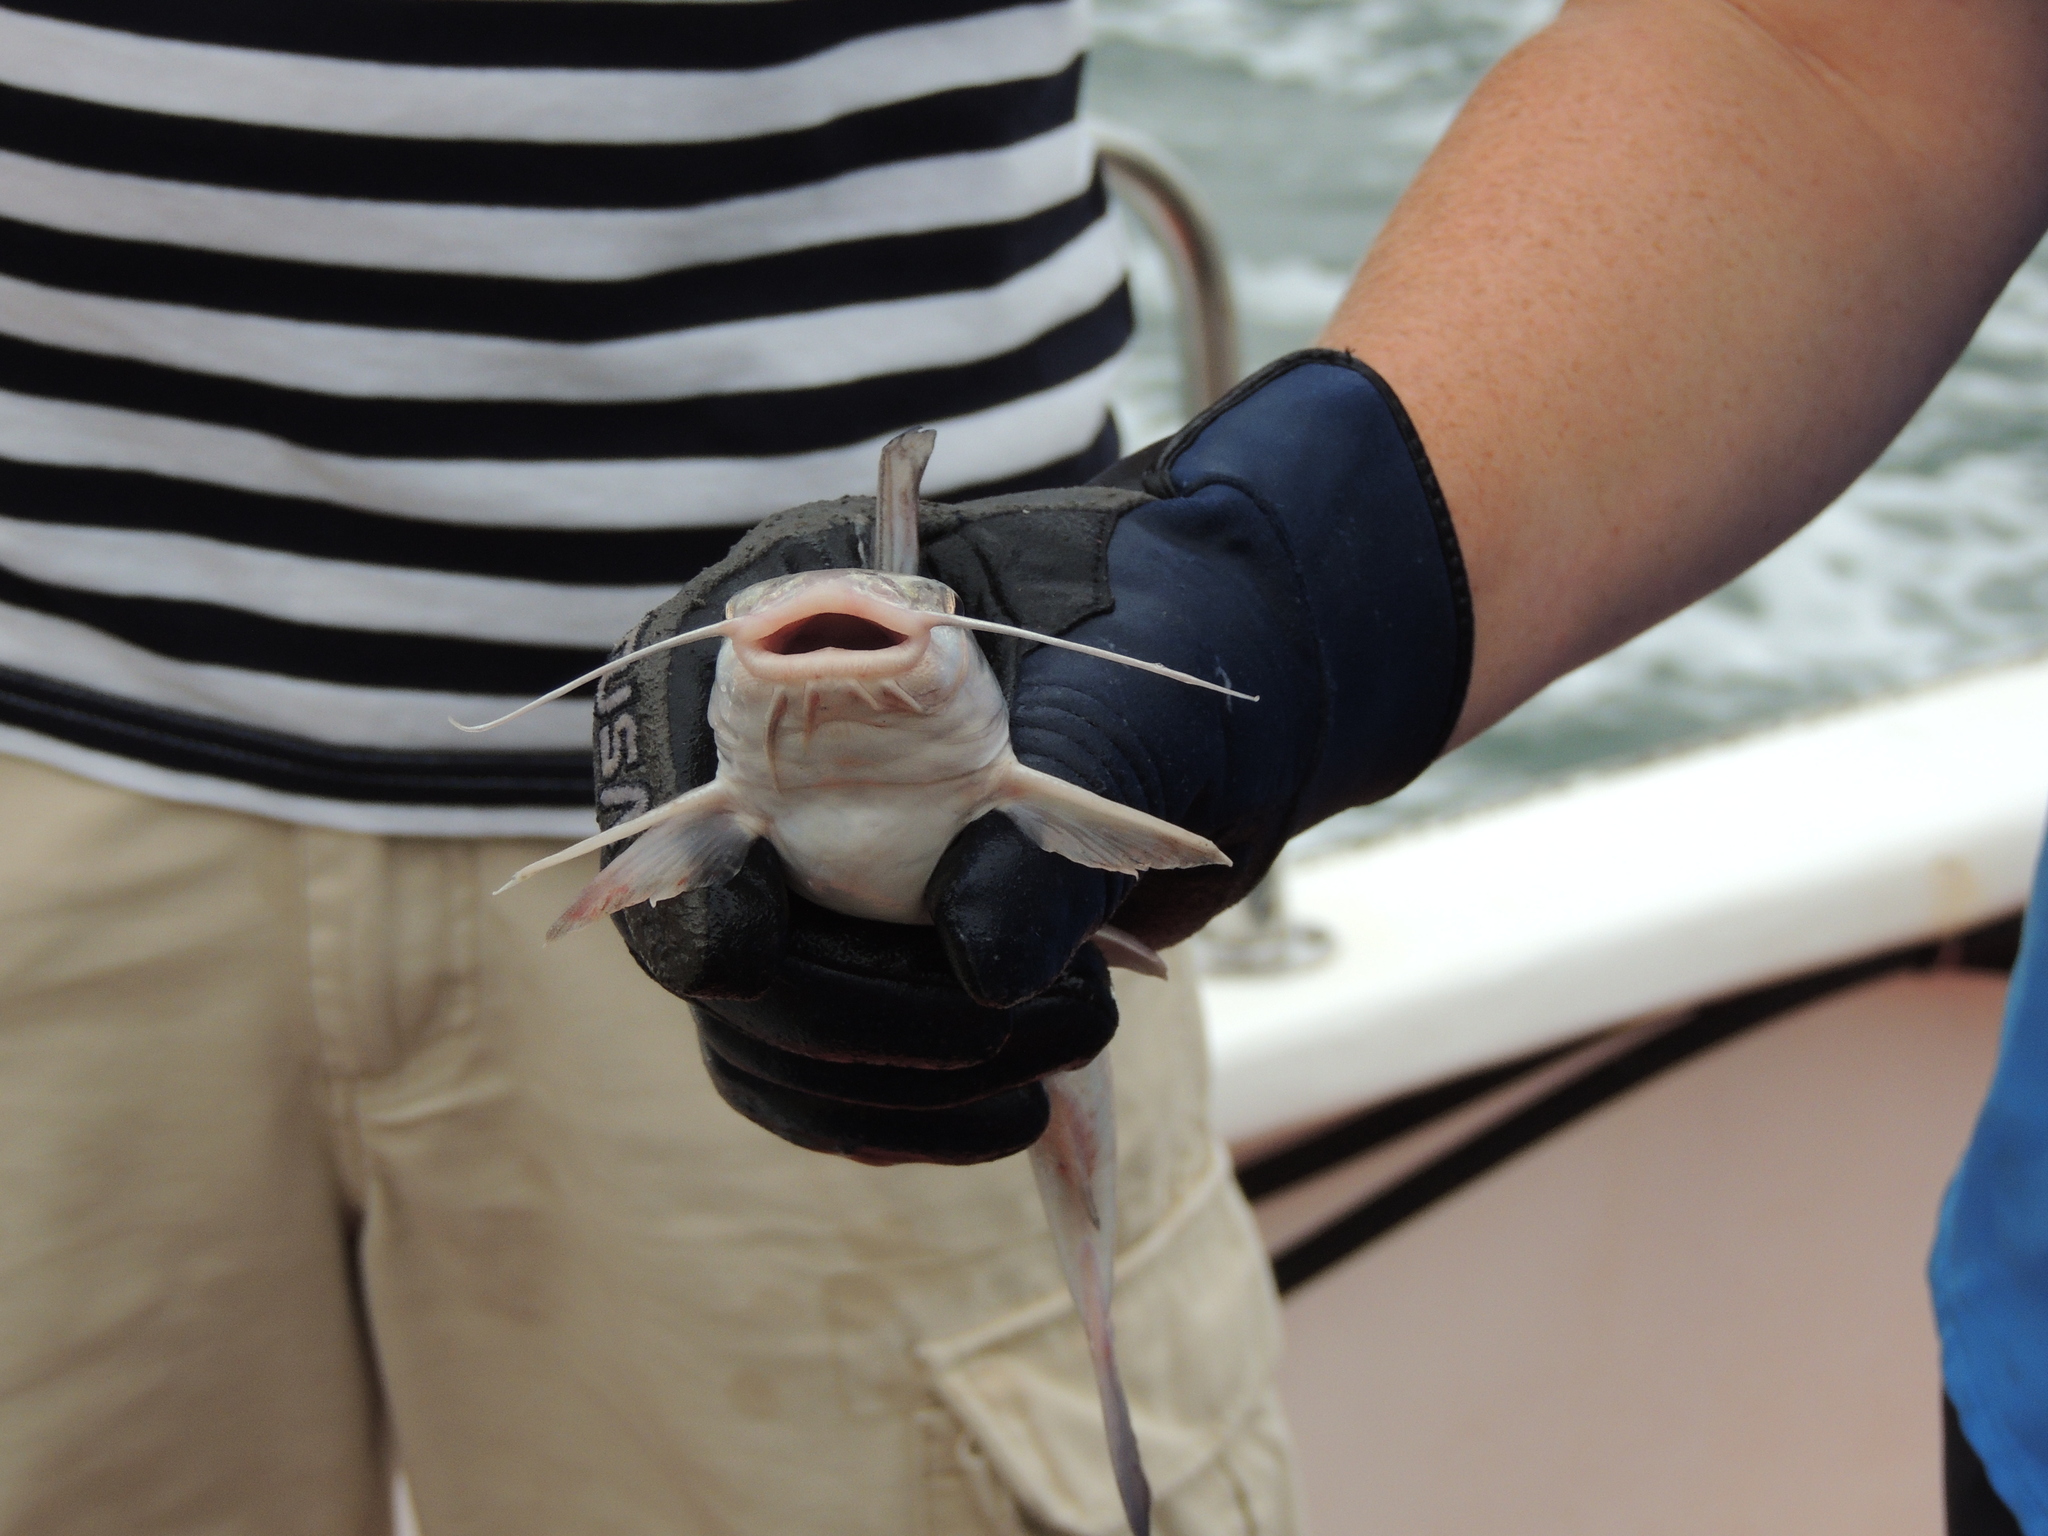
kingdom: Animalia
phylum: Chordata
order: Siluriformes
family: Ariidae
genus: Ariopsis
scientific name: Ariopsis felis
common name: Hardhead catfish
